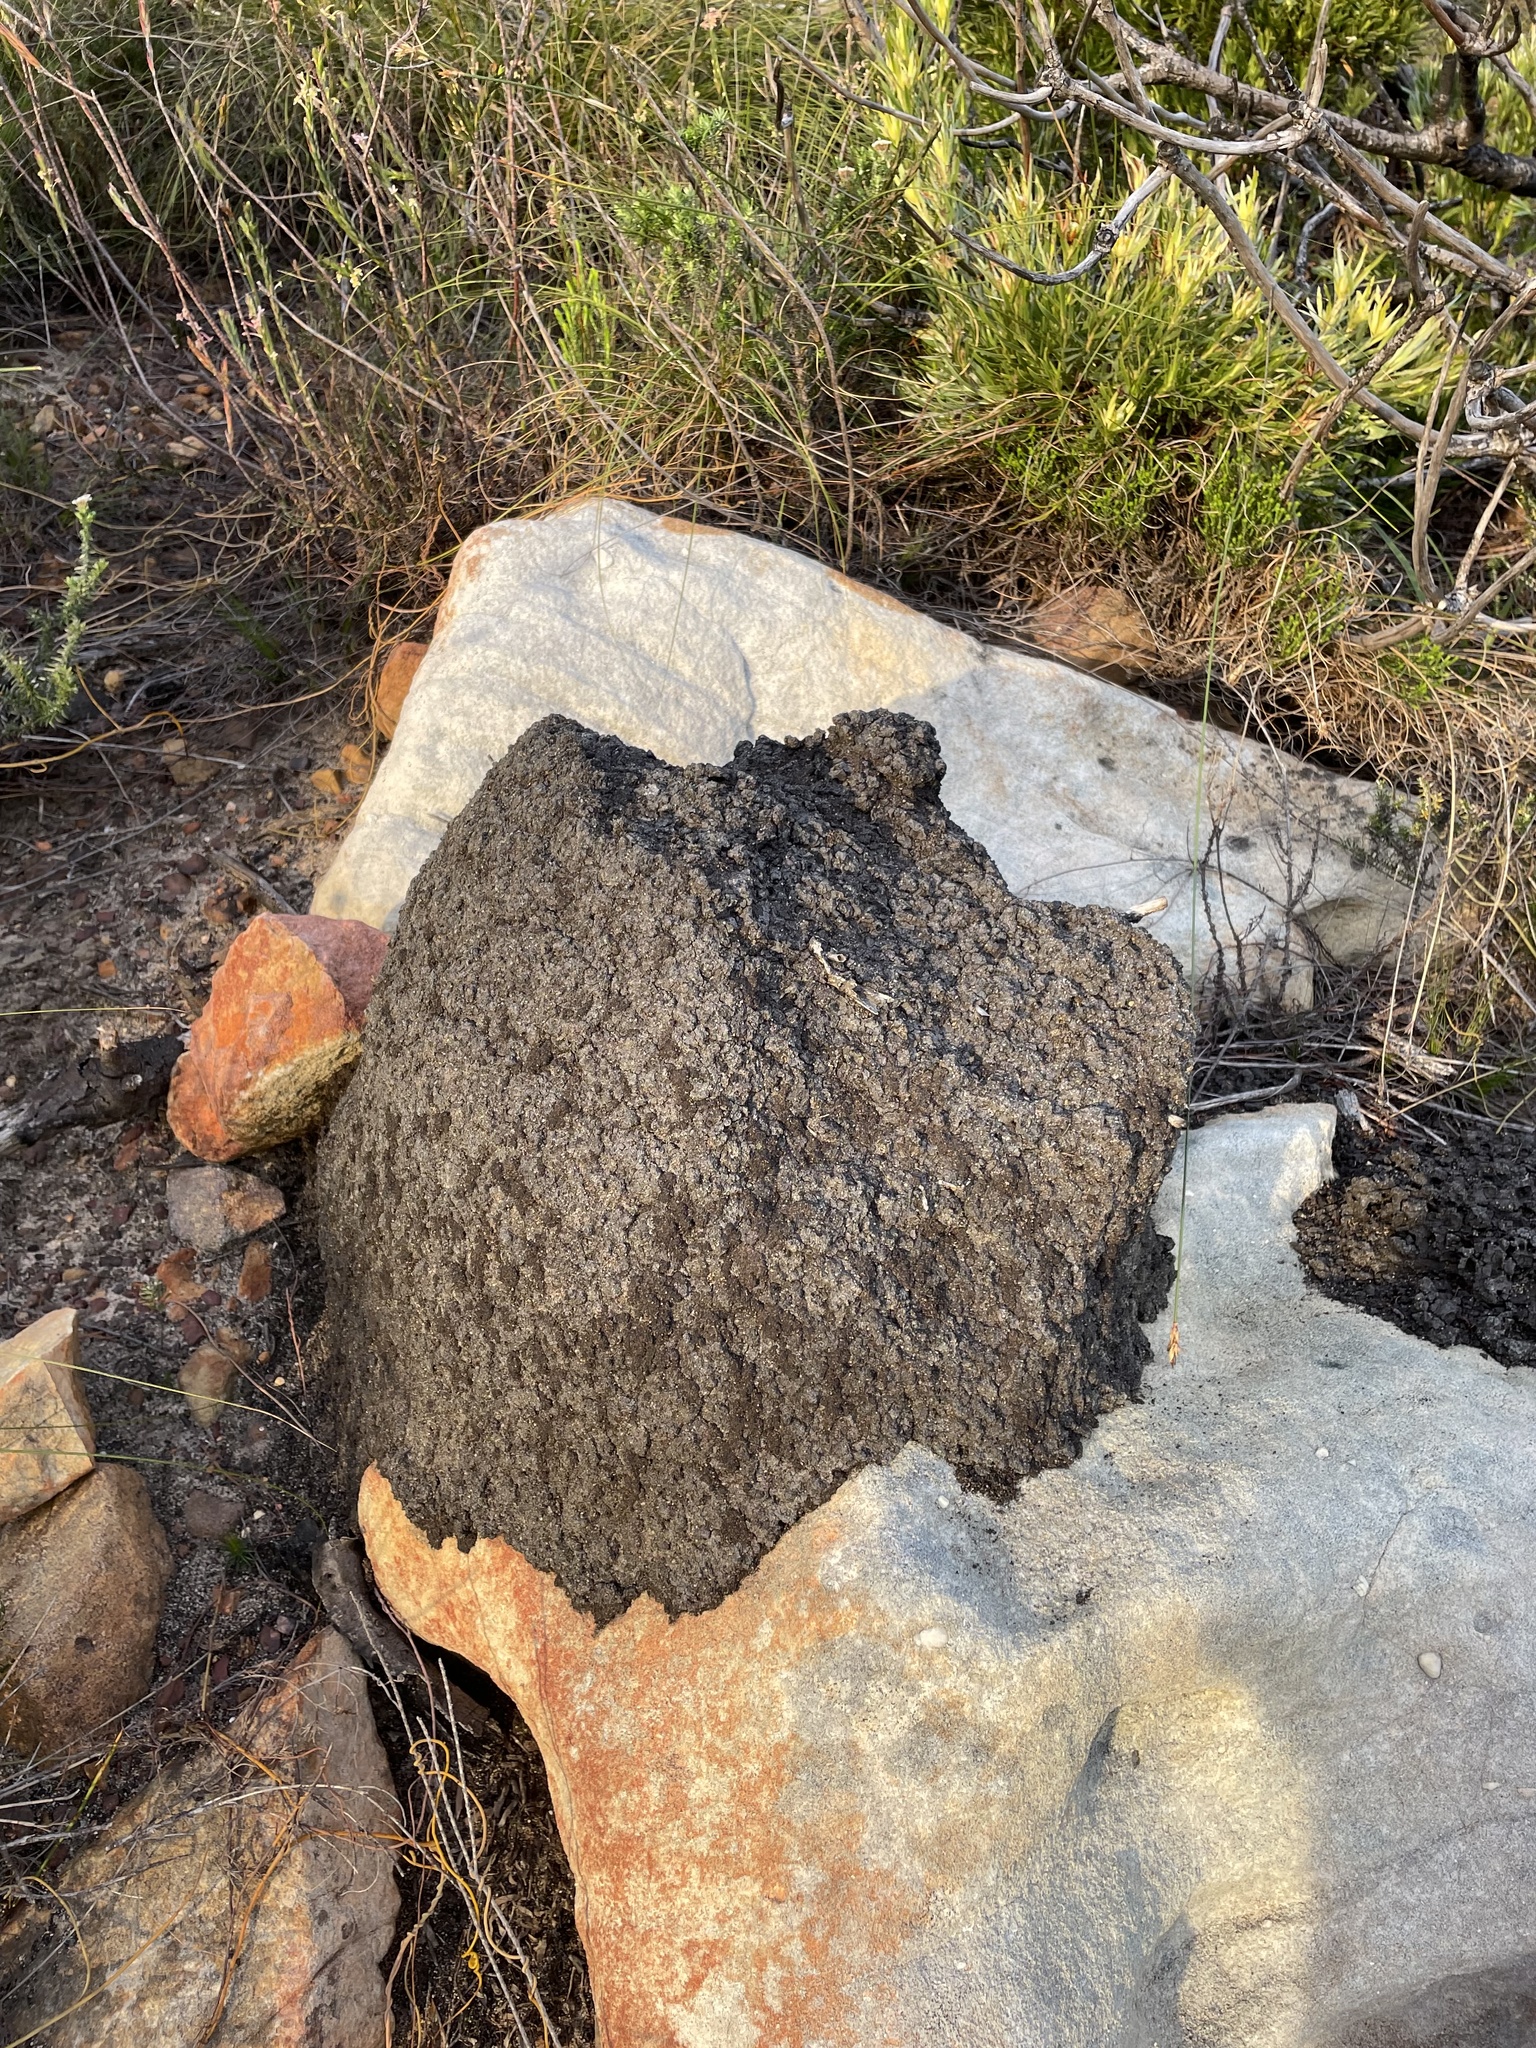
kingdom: Animalia
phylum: Arthropoda
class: Insecta
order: Blattodea
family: Termitidae
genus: Amitermes
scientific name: Amitermes hastatus
